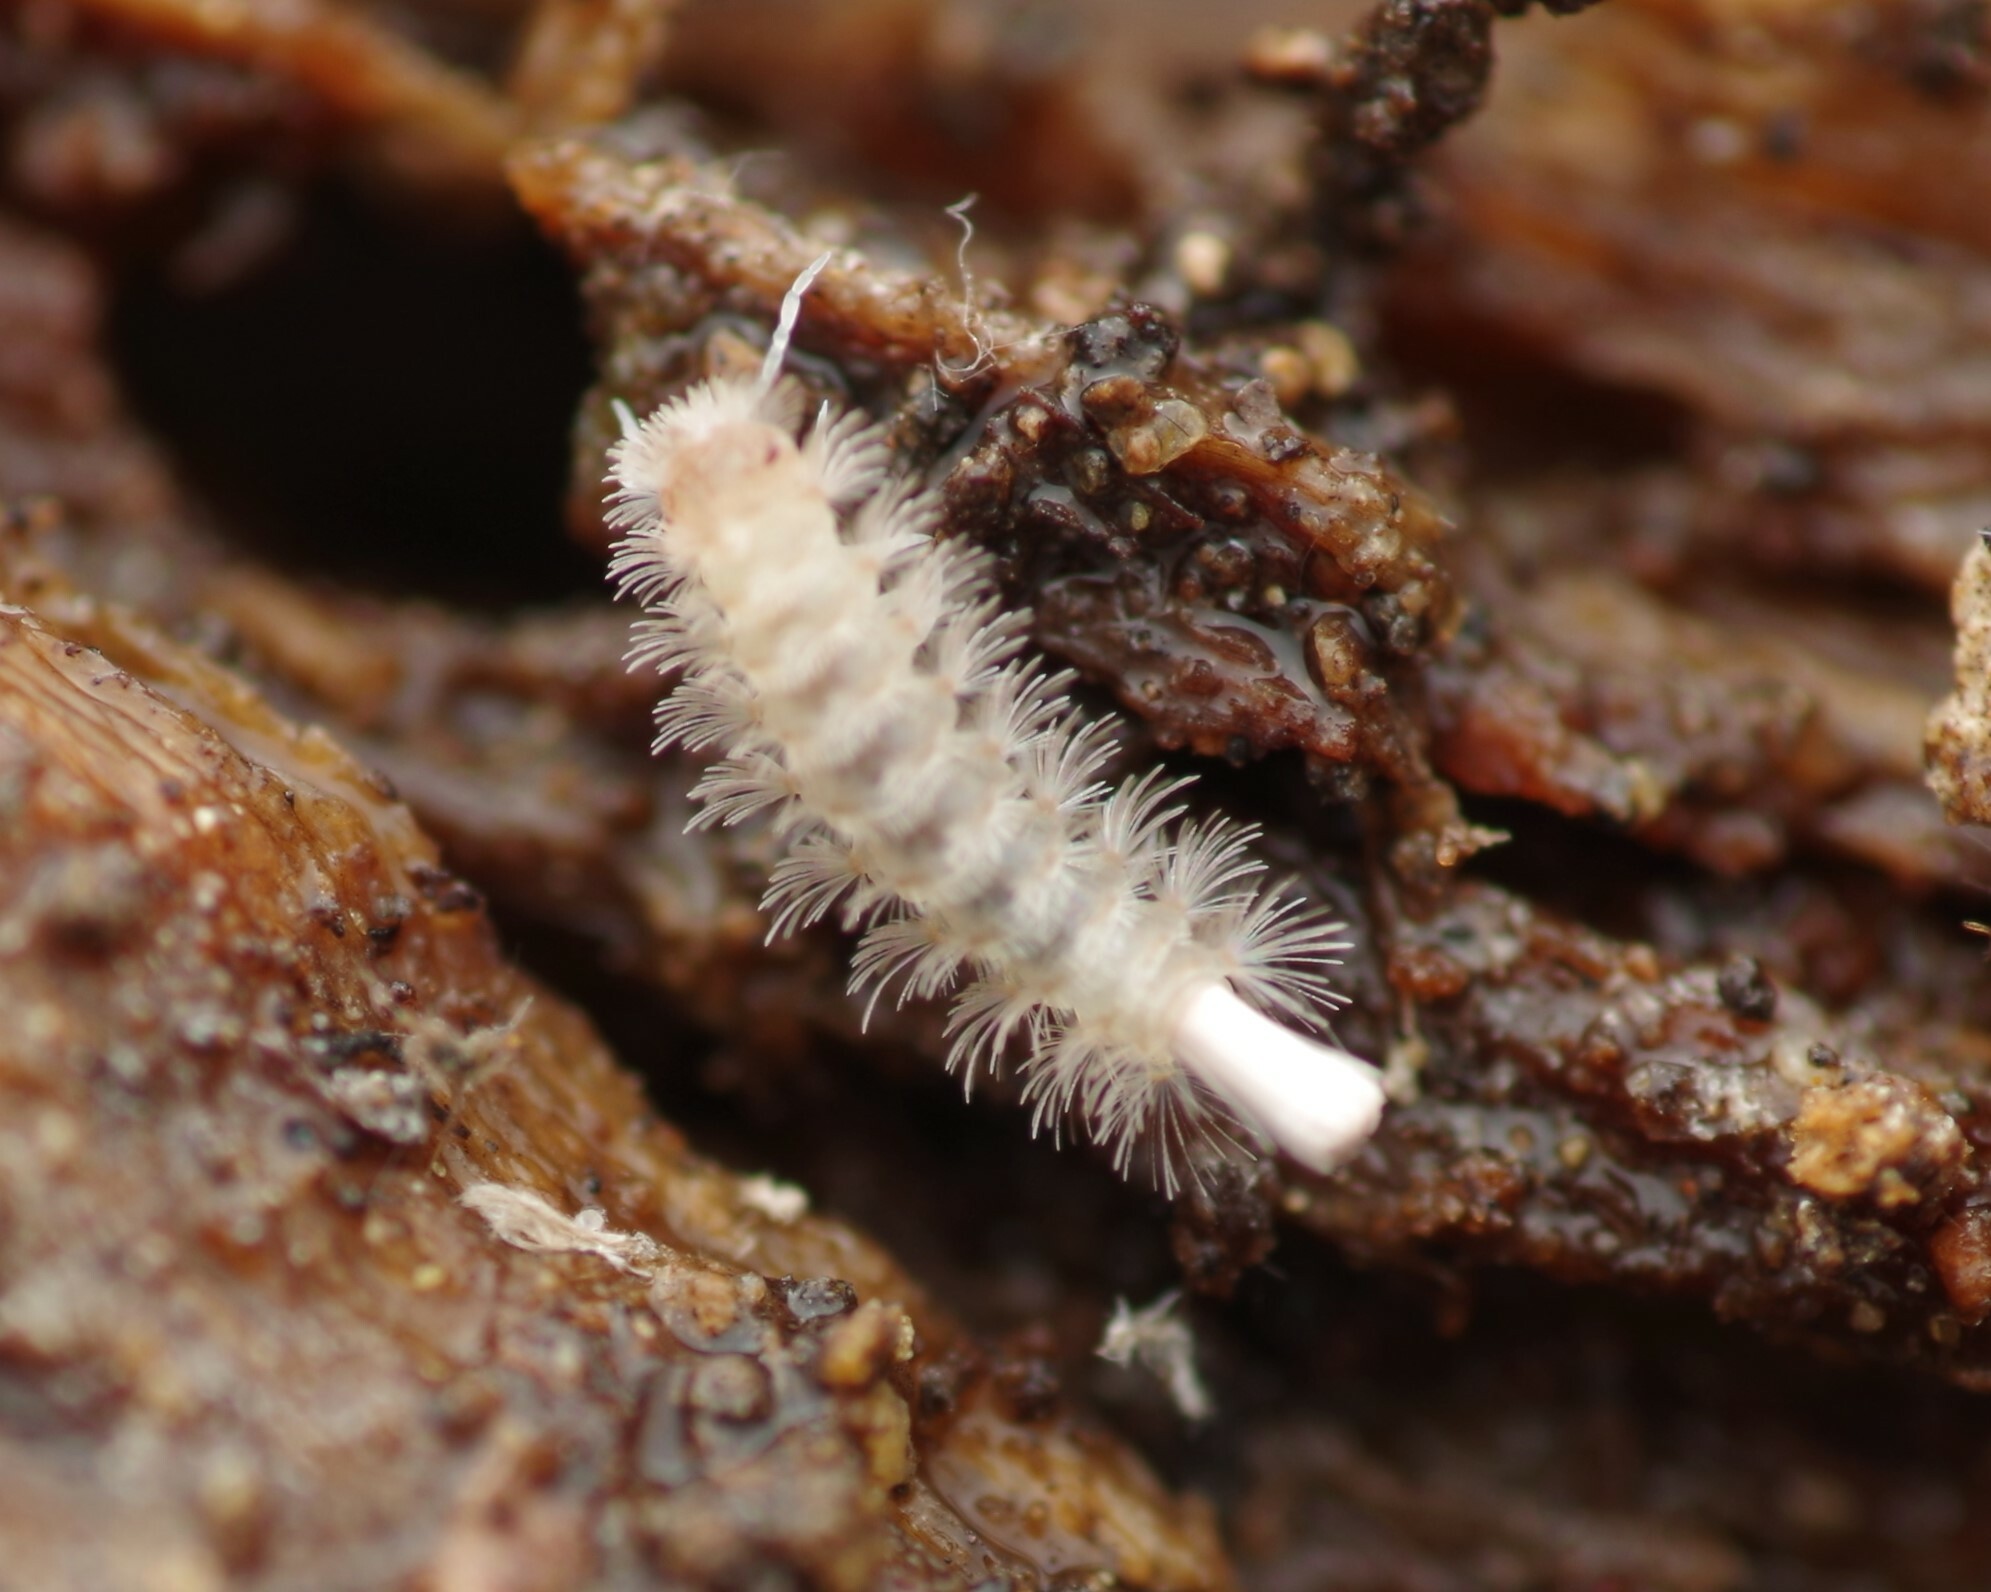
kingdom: Animalia
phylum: Arthropoda
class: Diplopoda
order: Polyxenida
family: Lophoproctidae
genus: Lophoproctus
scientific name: Lophoproctus lucidus
